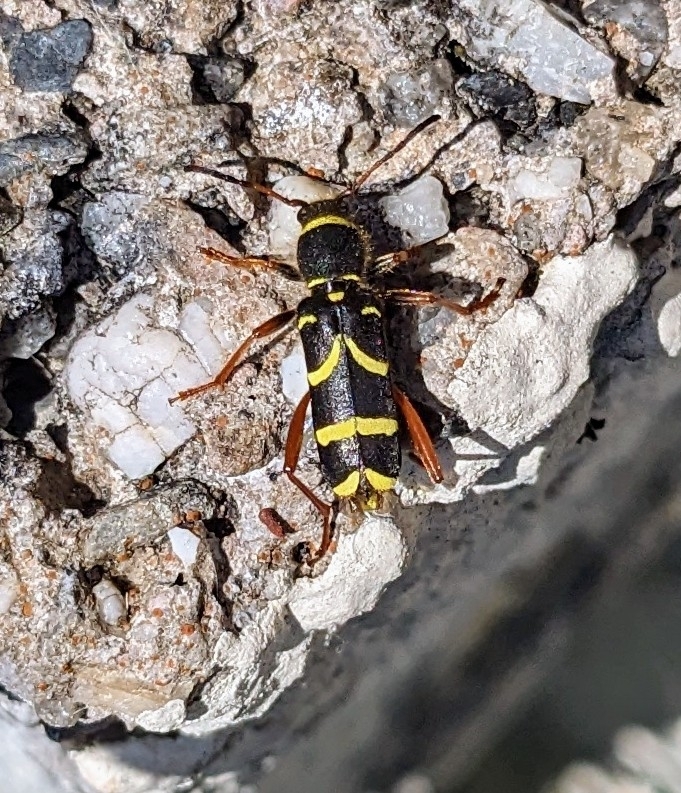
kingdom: Animalia
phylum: Arthropoda
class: Insecta
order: Coleoptera
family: Cerambycidae
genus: Clytus
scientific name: Clytus arietis
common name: Wasp beetle
